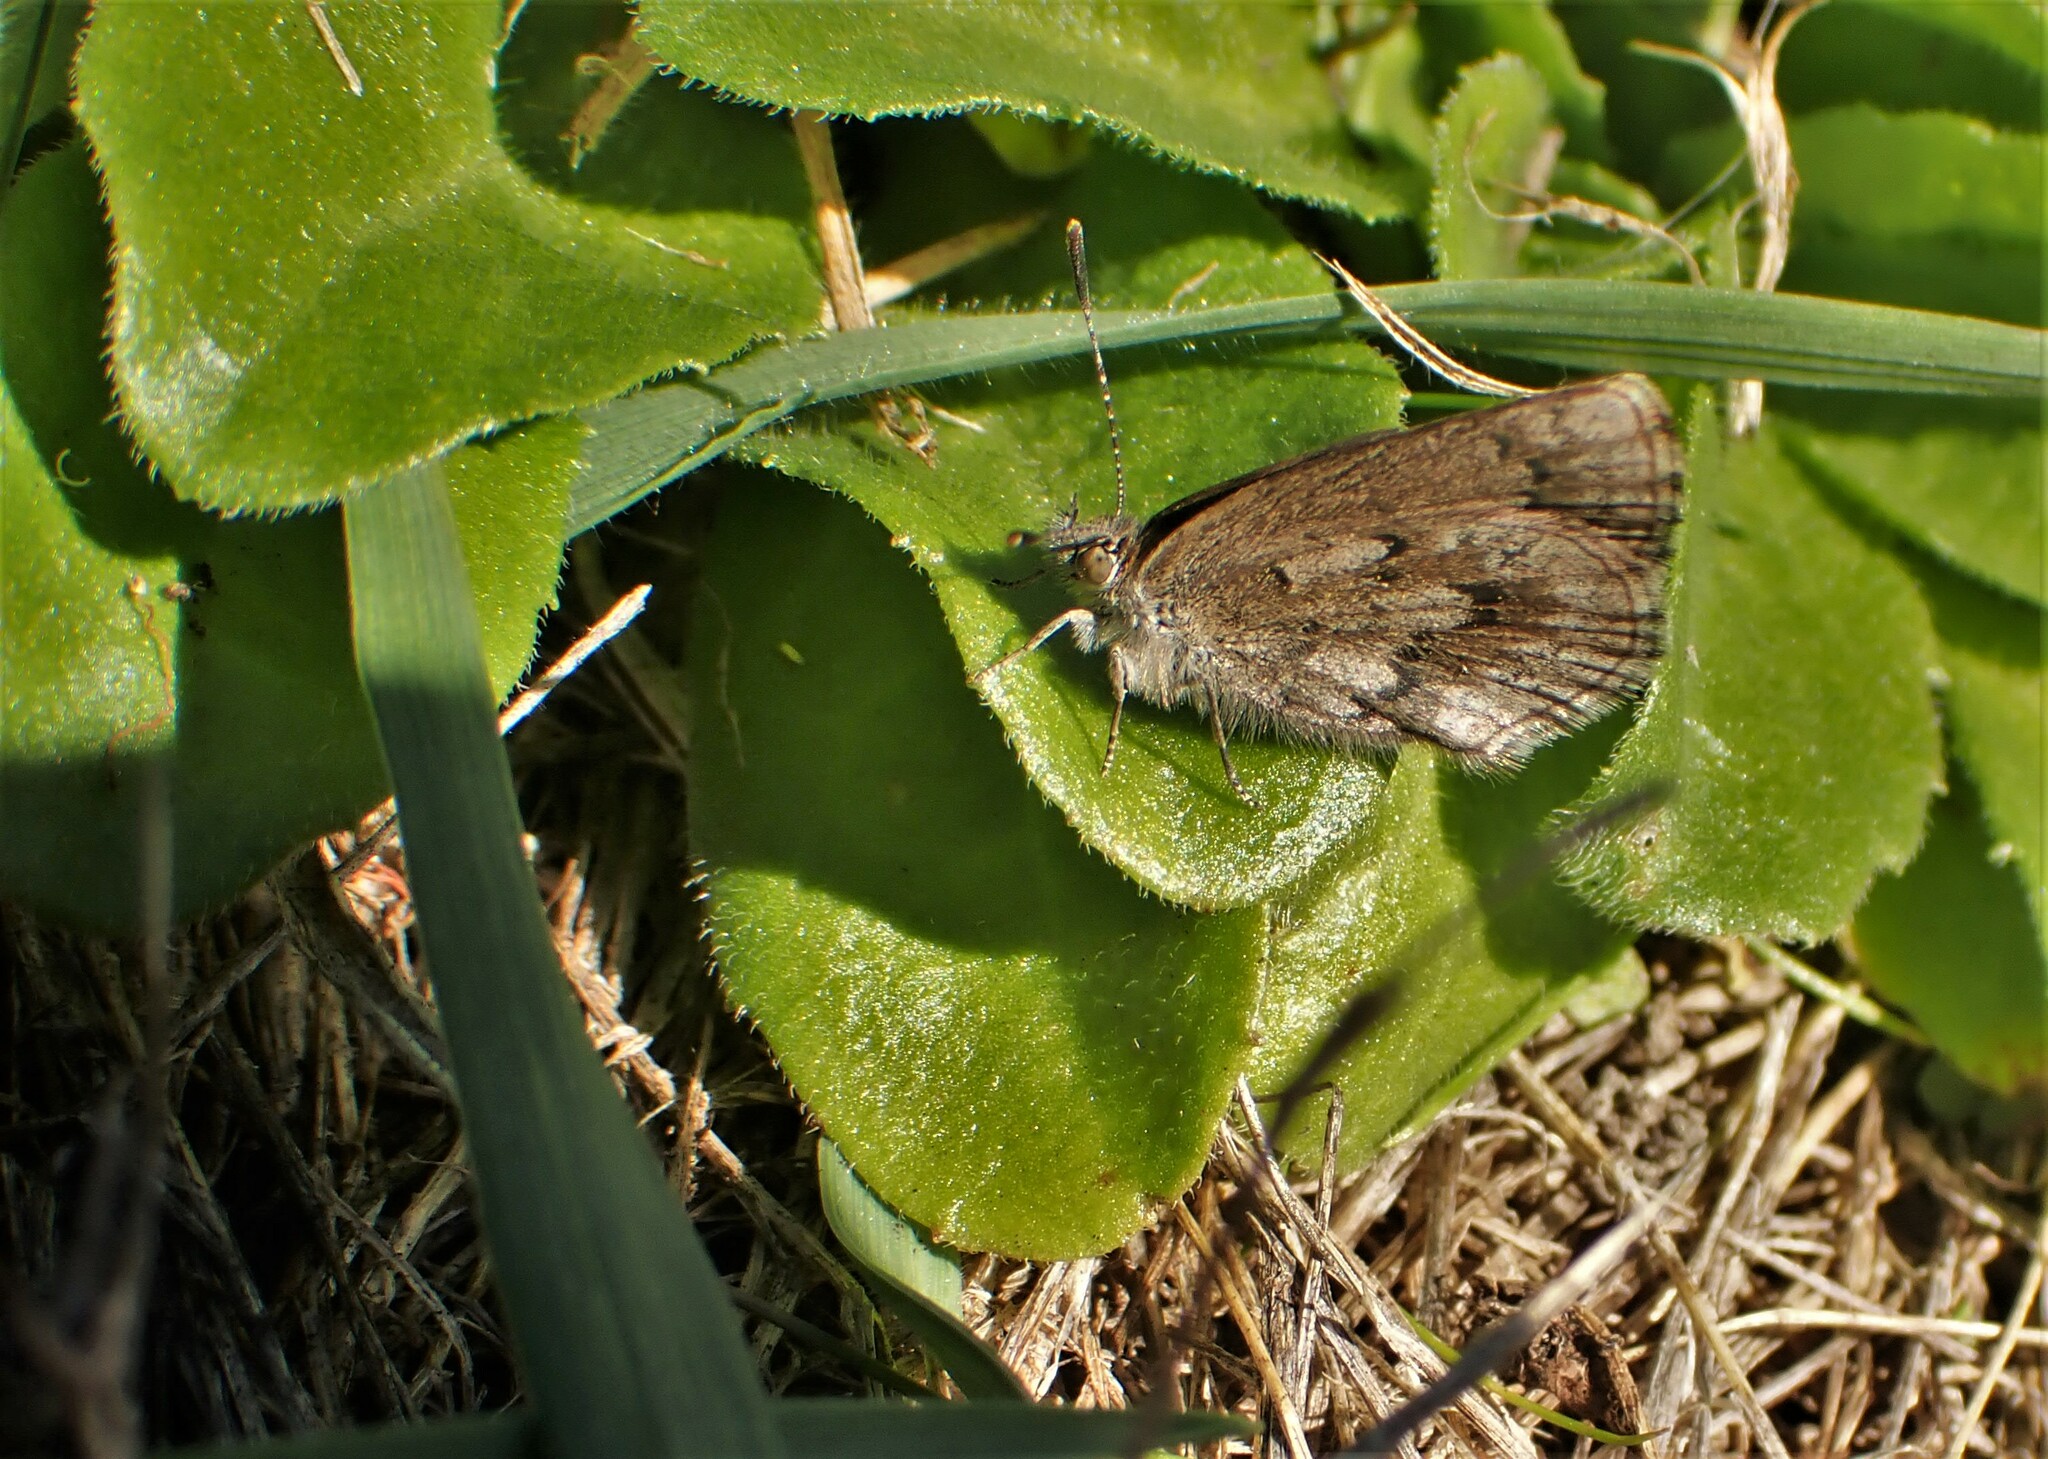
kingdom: Animalia
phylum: Arthropoda
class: Insecta
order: Lepidoptera
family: Lycaenidae
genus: Zizina
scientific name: Zizina oxleyi
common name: Southern blue
